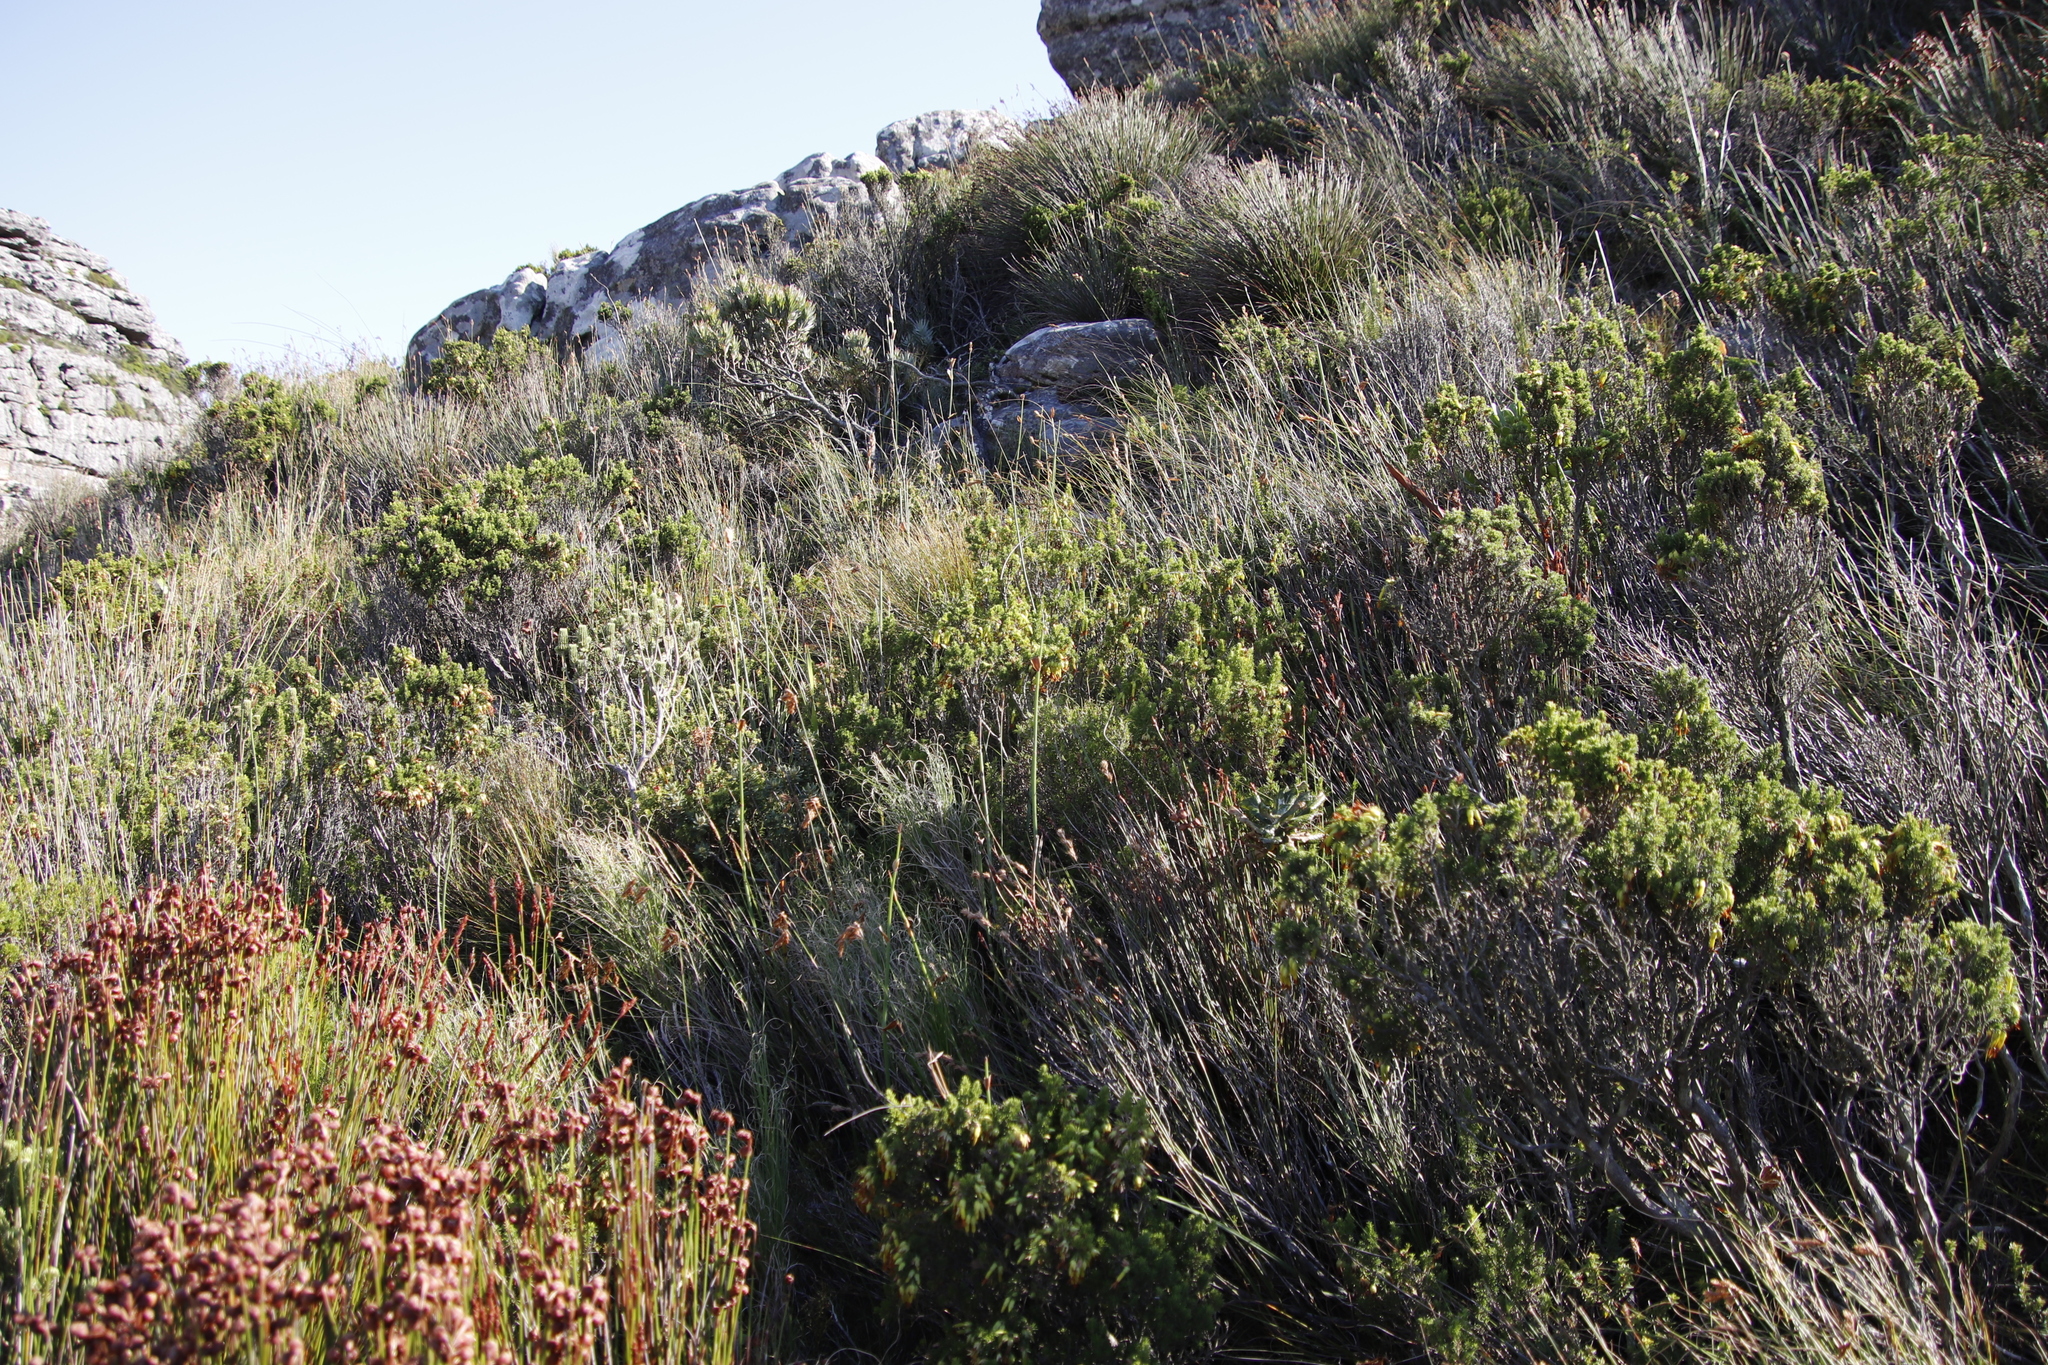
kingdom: Plantae
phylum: Tracheophyta
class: Magnoliopsida
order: Ericales
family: Ericaceae
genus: Erica
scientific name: Erica coccinea
